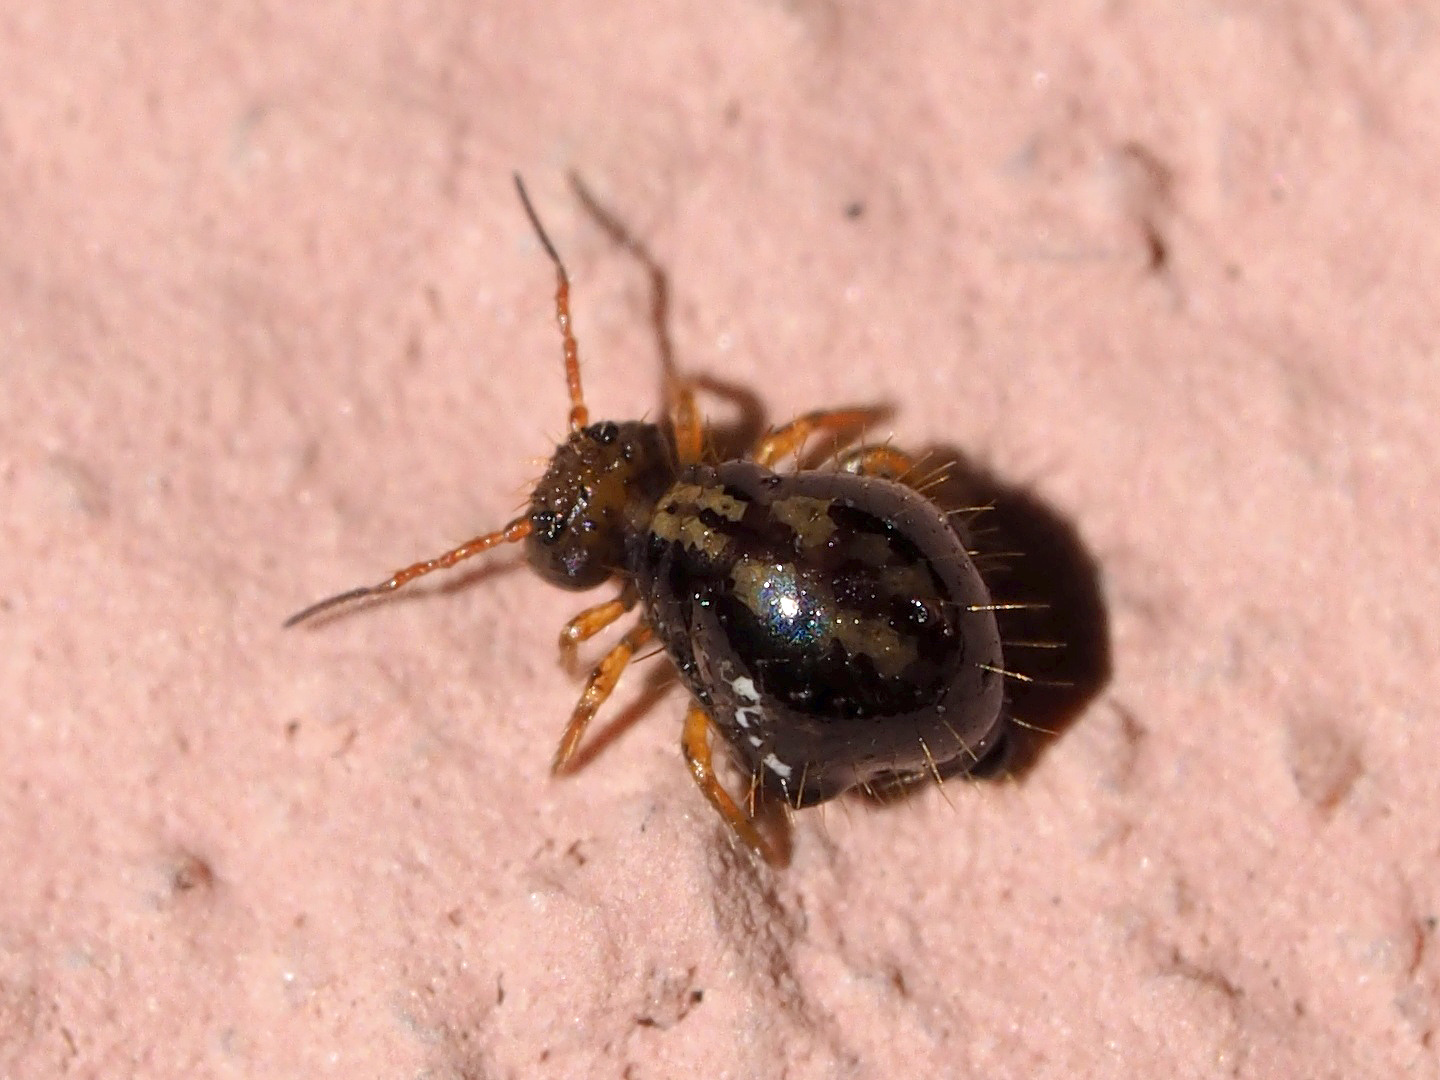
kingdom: Animalia
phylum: Arthropoda
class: Collembola
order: Symphypleona
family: Sminthuridae
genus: Allacma
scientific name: Allacma fusca
